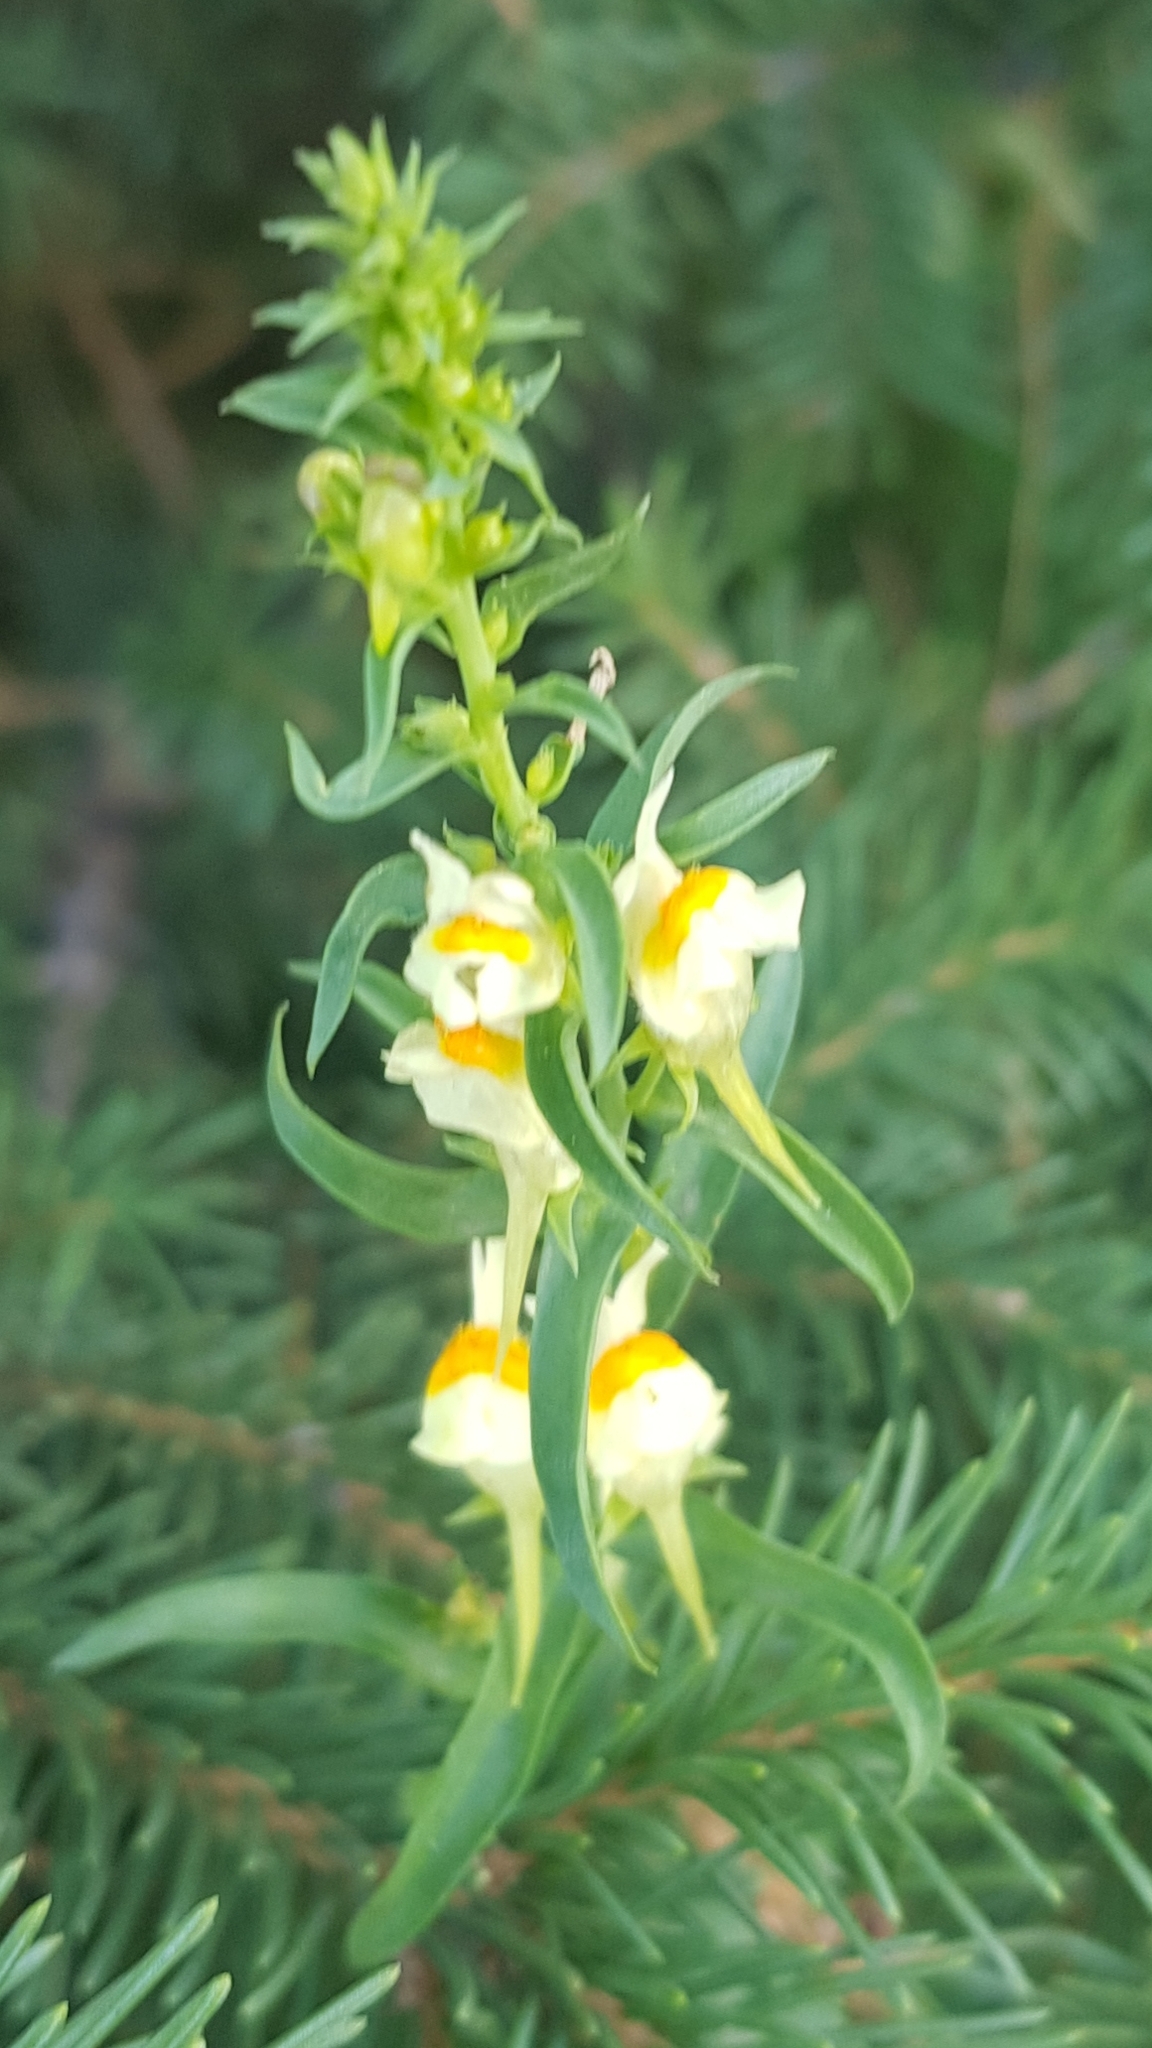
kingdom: Plantae
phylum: Tracheophyta
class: Magnoliopsida
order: Lamiales
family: Plantaginaceae
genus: Linaria
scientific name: Linaria buriatica
